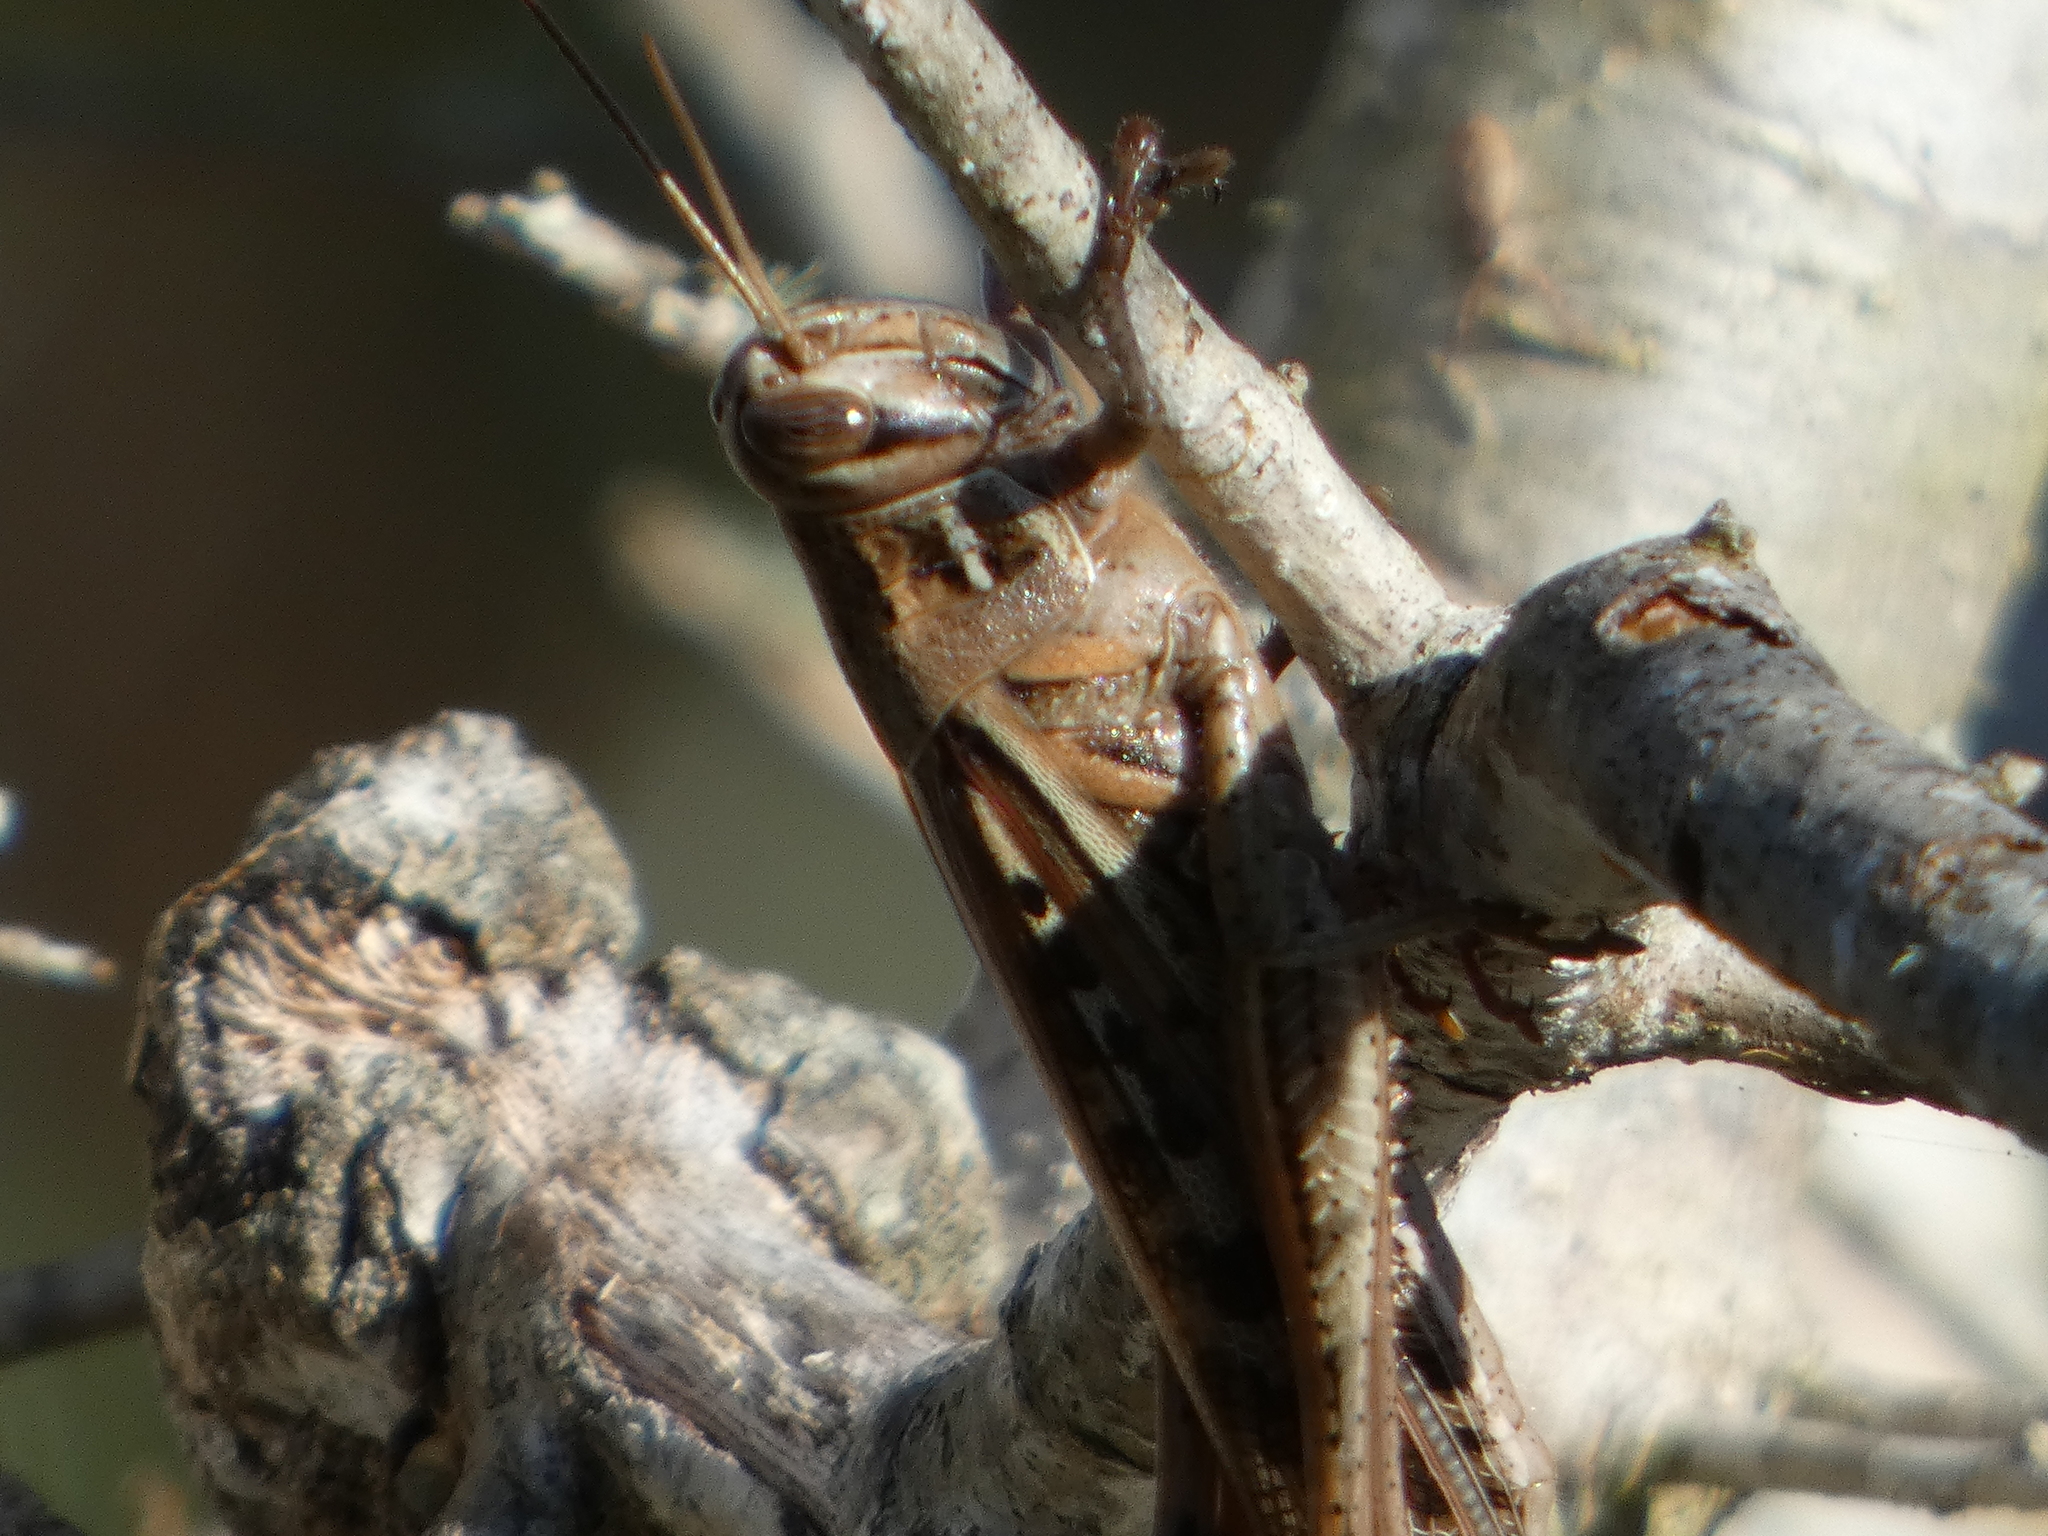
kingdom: Animalia
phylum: Arthropoda
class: Insecta
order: Orthoptera
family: Acrididae
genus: Schistocerca
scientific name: Schistocerca americana
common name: American bird locust
